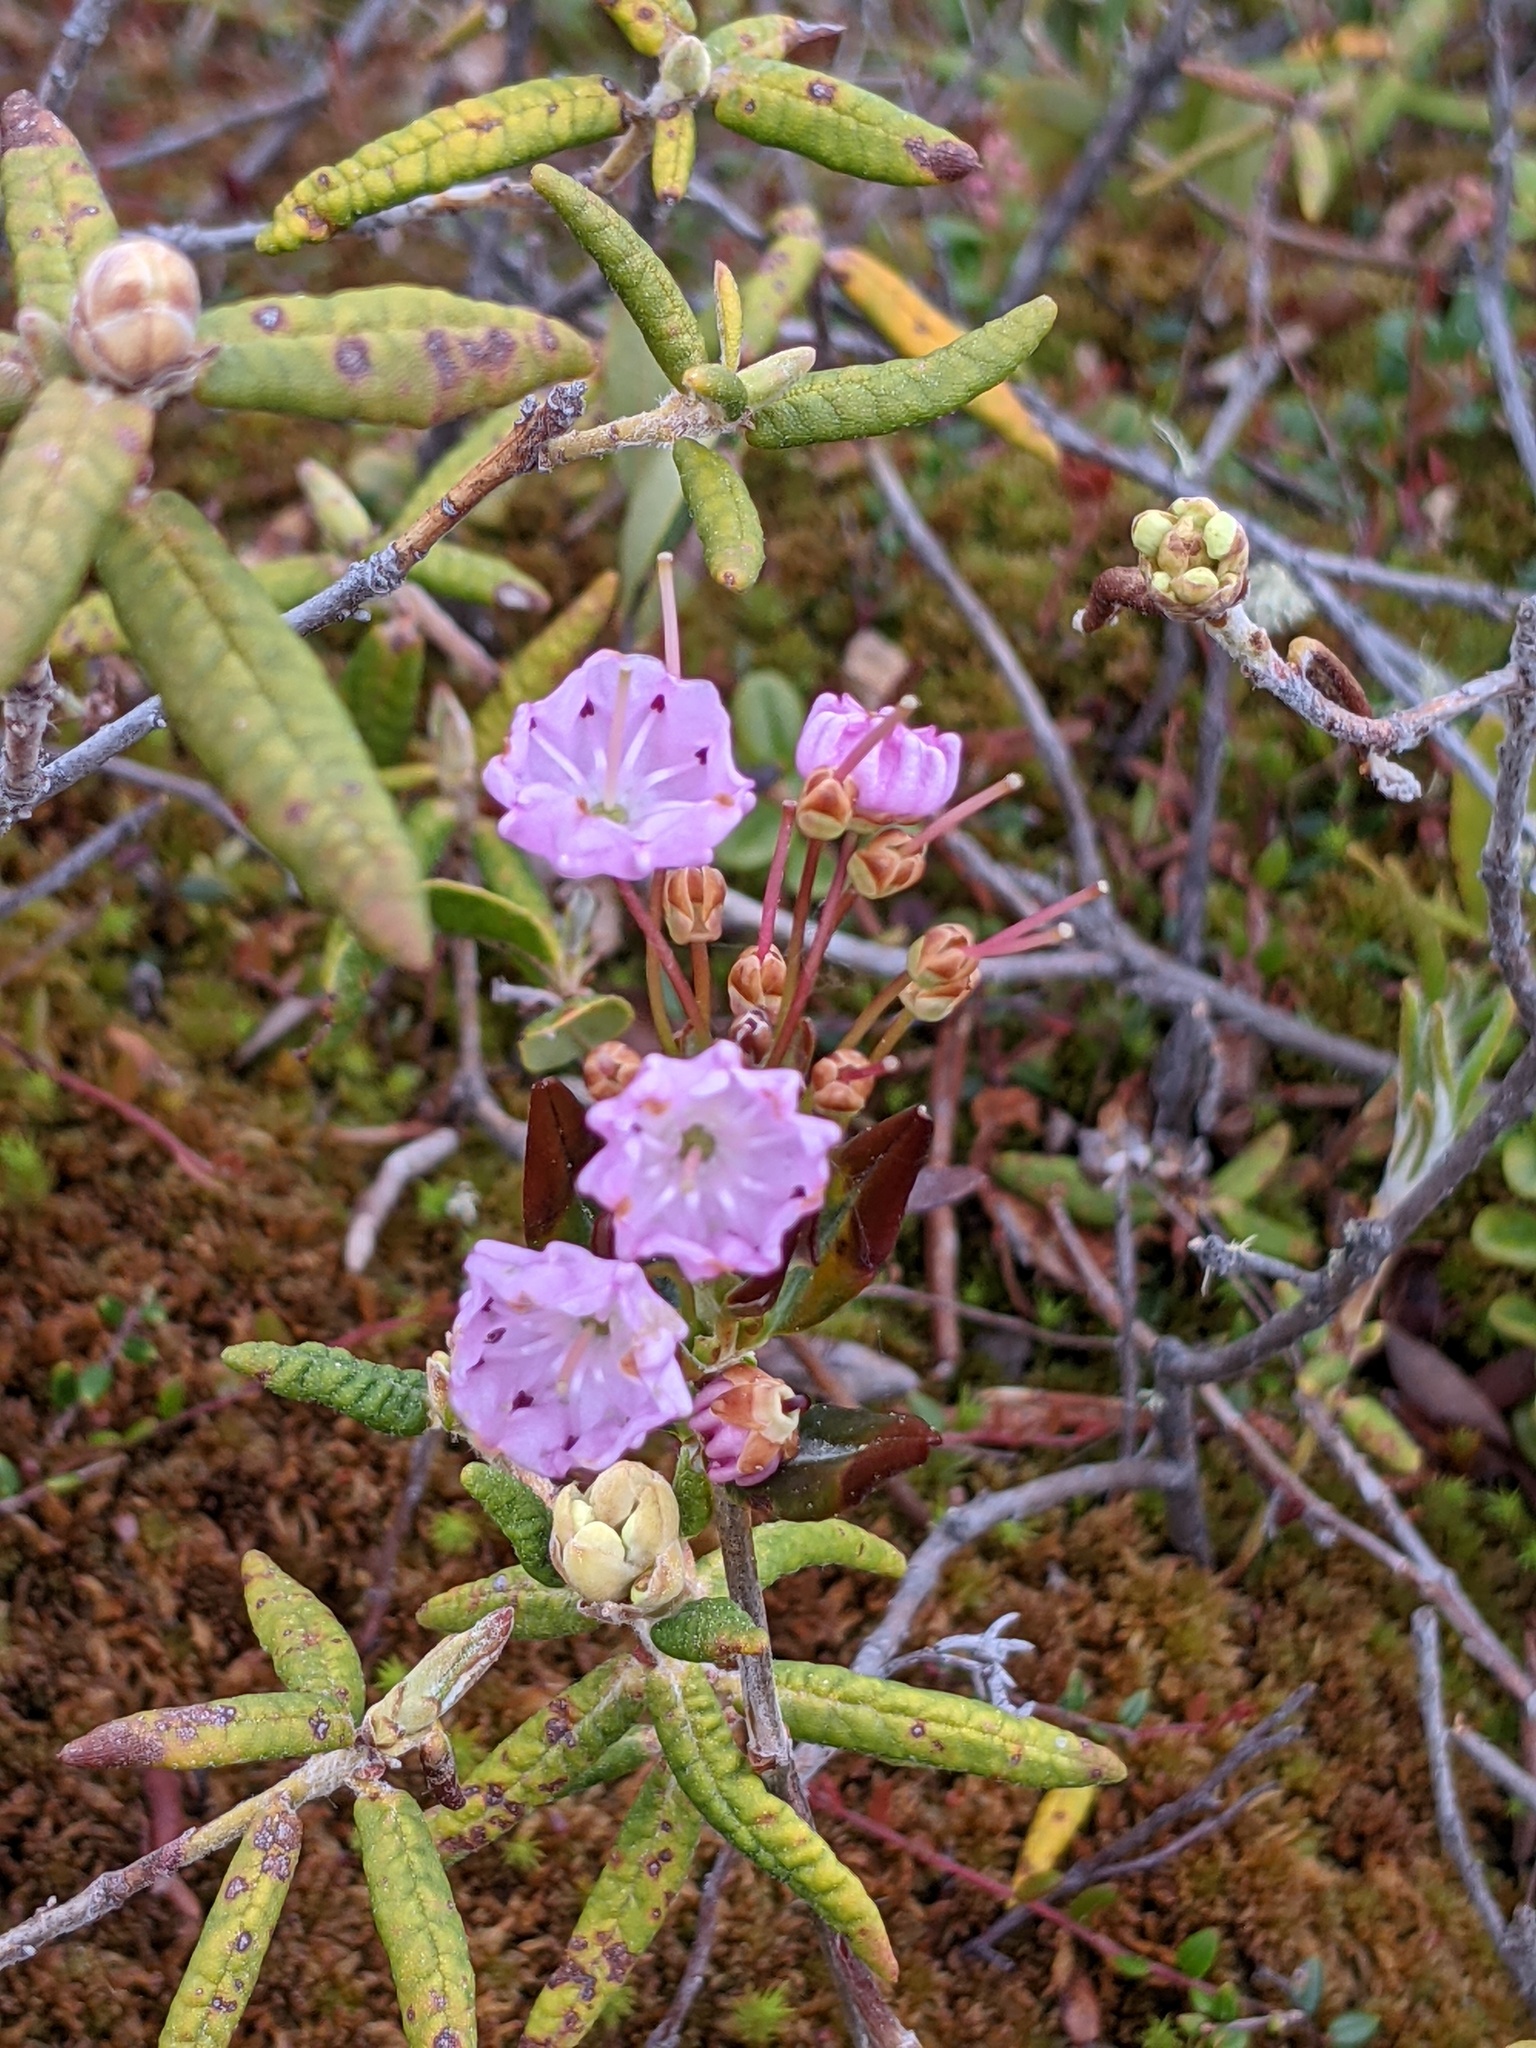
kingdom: Plantae
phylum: Tracheophyta
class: Magnoliopsida
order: Ericales
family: Ericaceae
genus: Kalmia
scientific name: Kalmia polifolia
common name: Bog-laurel
